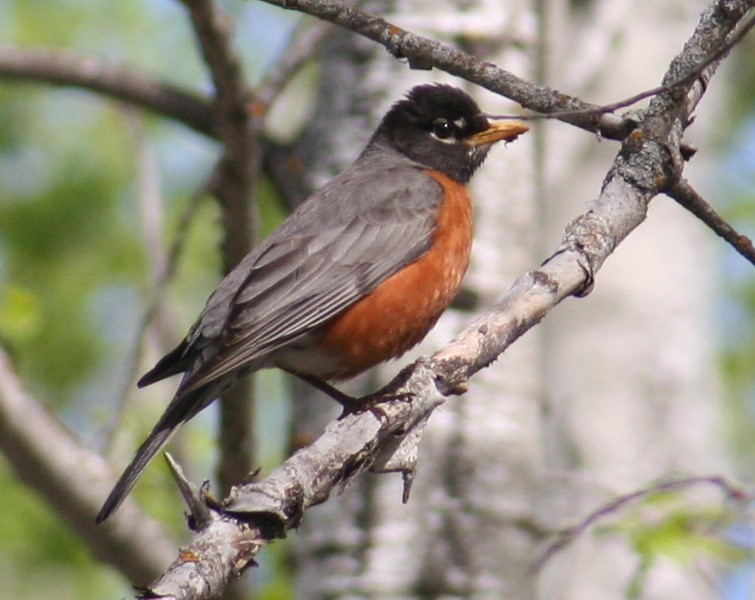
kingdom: Animalia
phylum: Chordata
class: Aves
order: Passeriformes
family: Turdidae
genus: Turdus
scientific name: Turdus migratorius
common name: American robin
